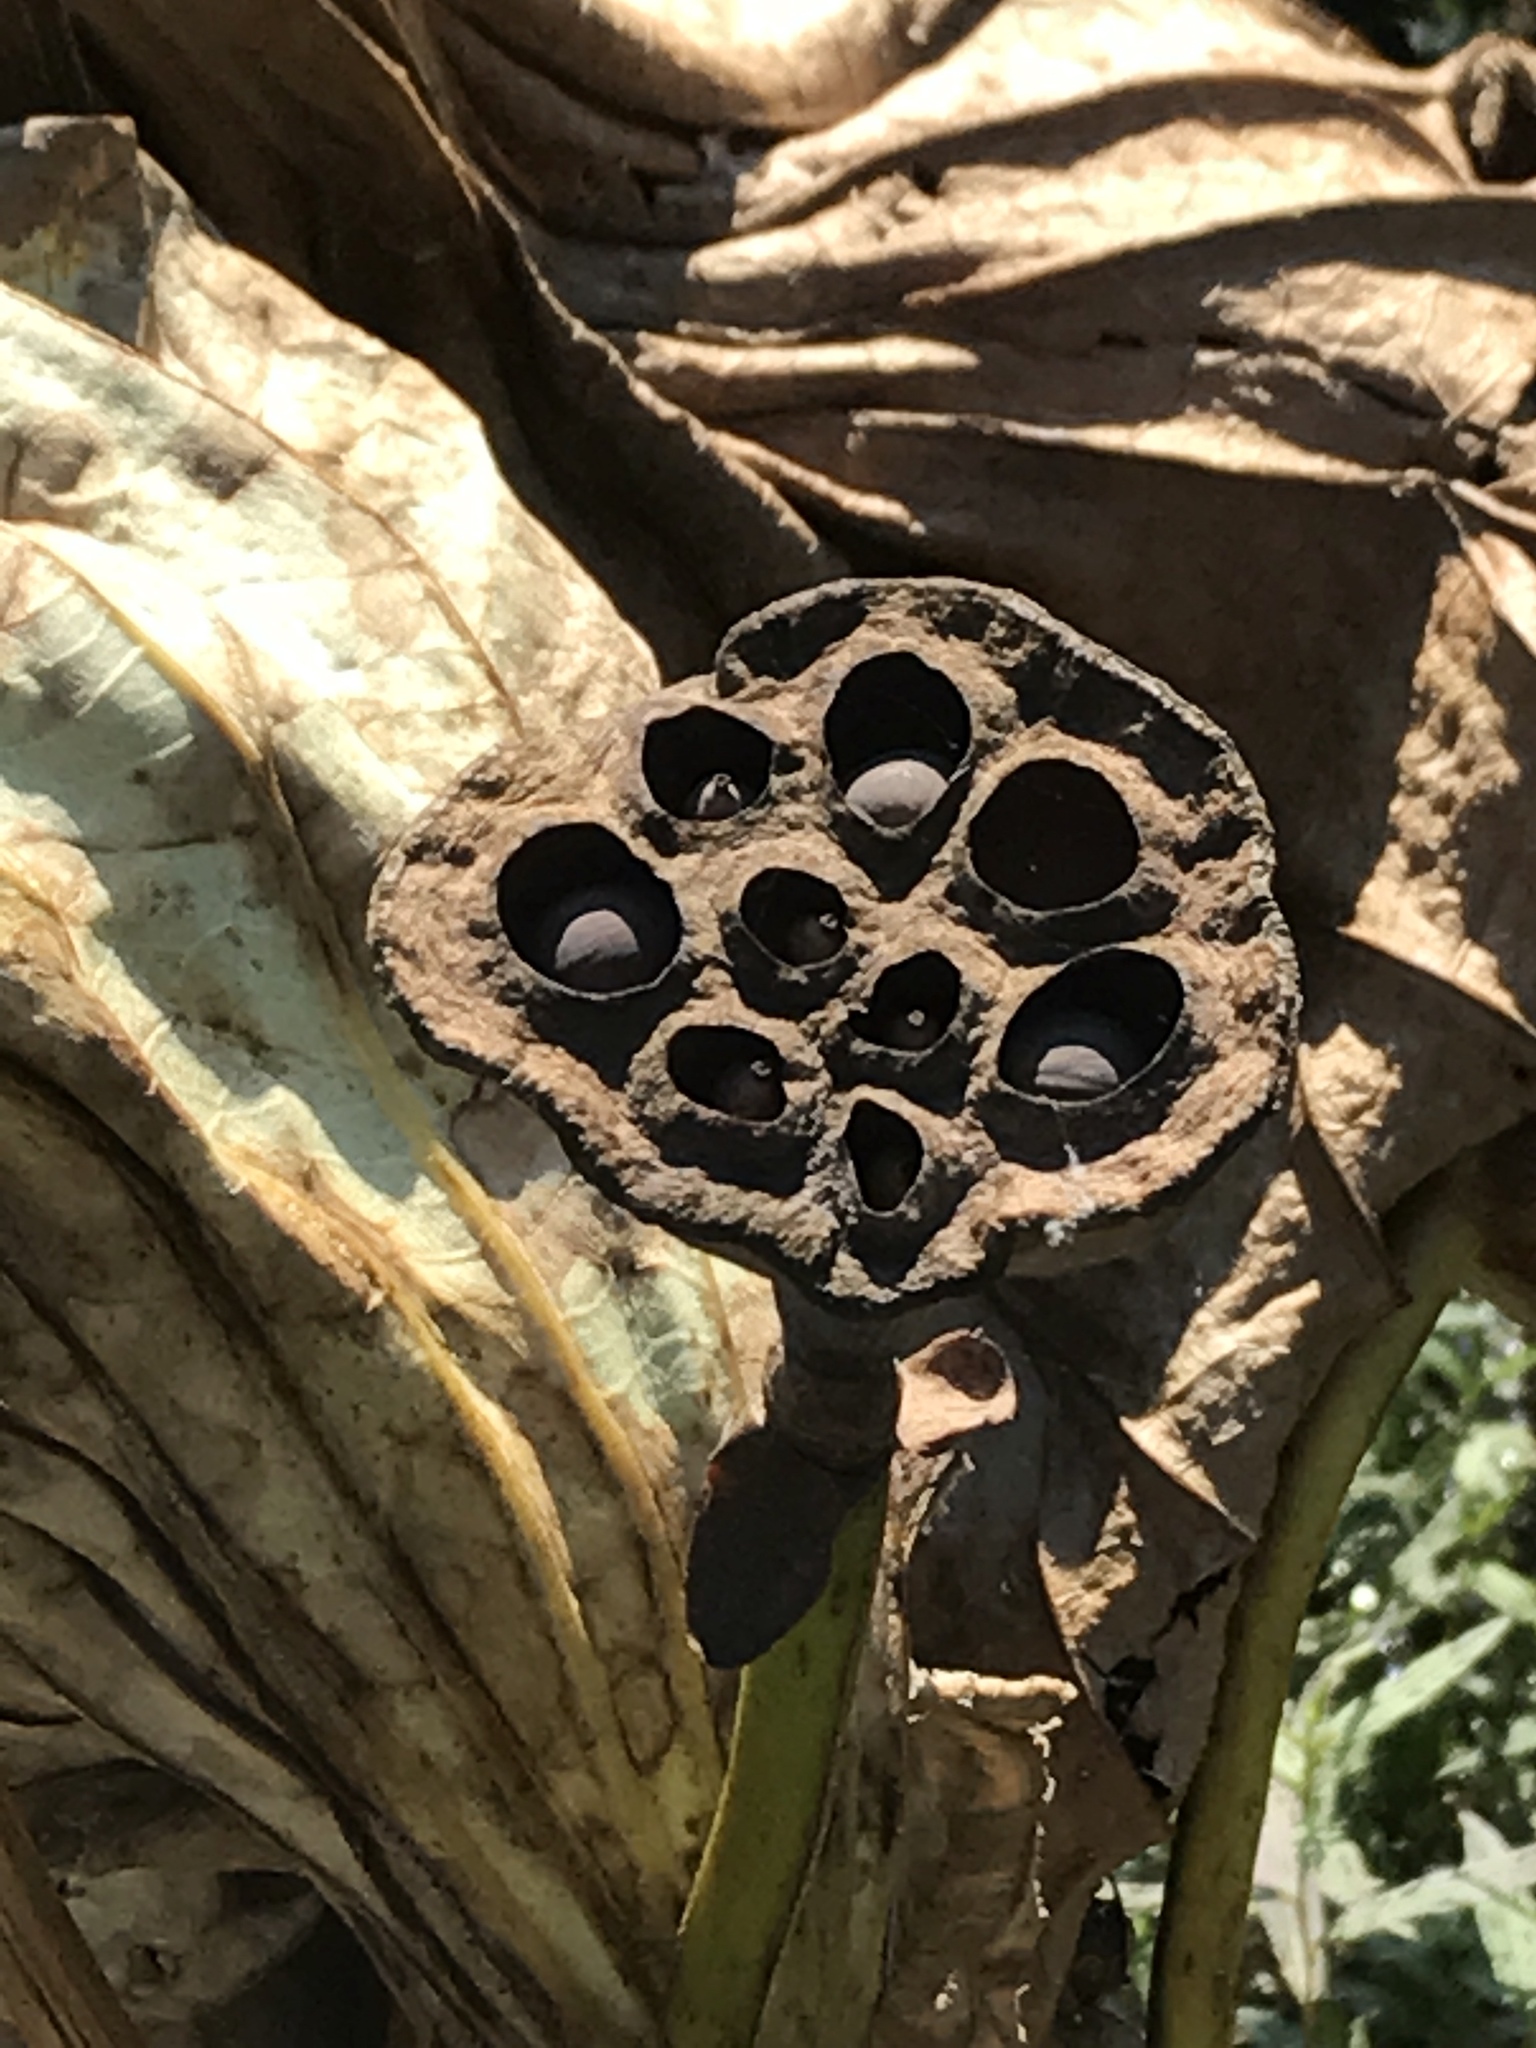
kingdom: Plantae
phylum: Tracheophyta
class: Magnoliopsida
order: Proteales
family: Nelumbonaceae
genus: Nelumbo
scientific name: Nelumbo lutea
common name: American lotus
